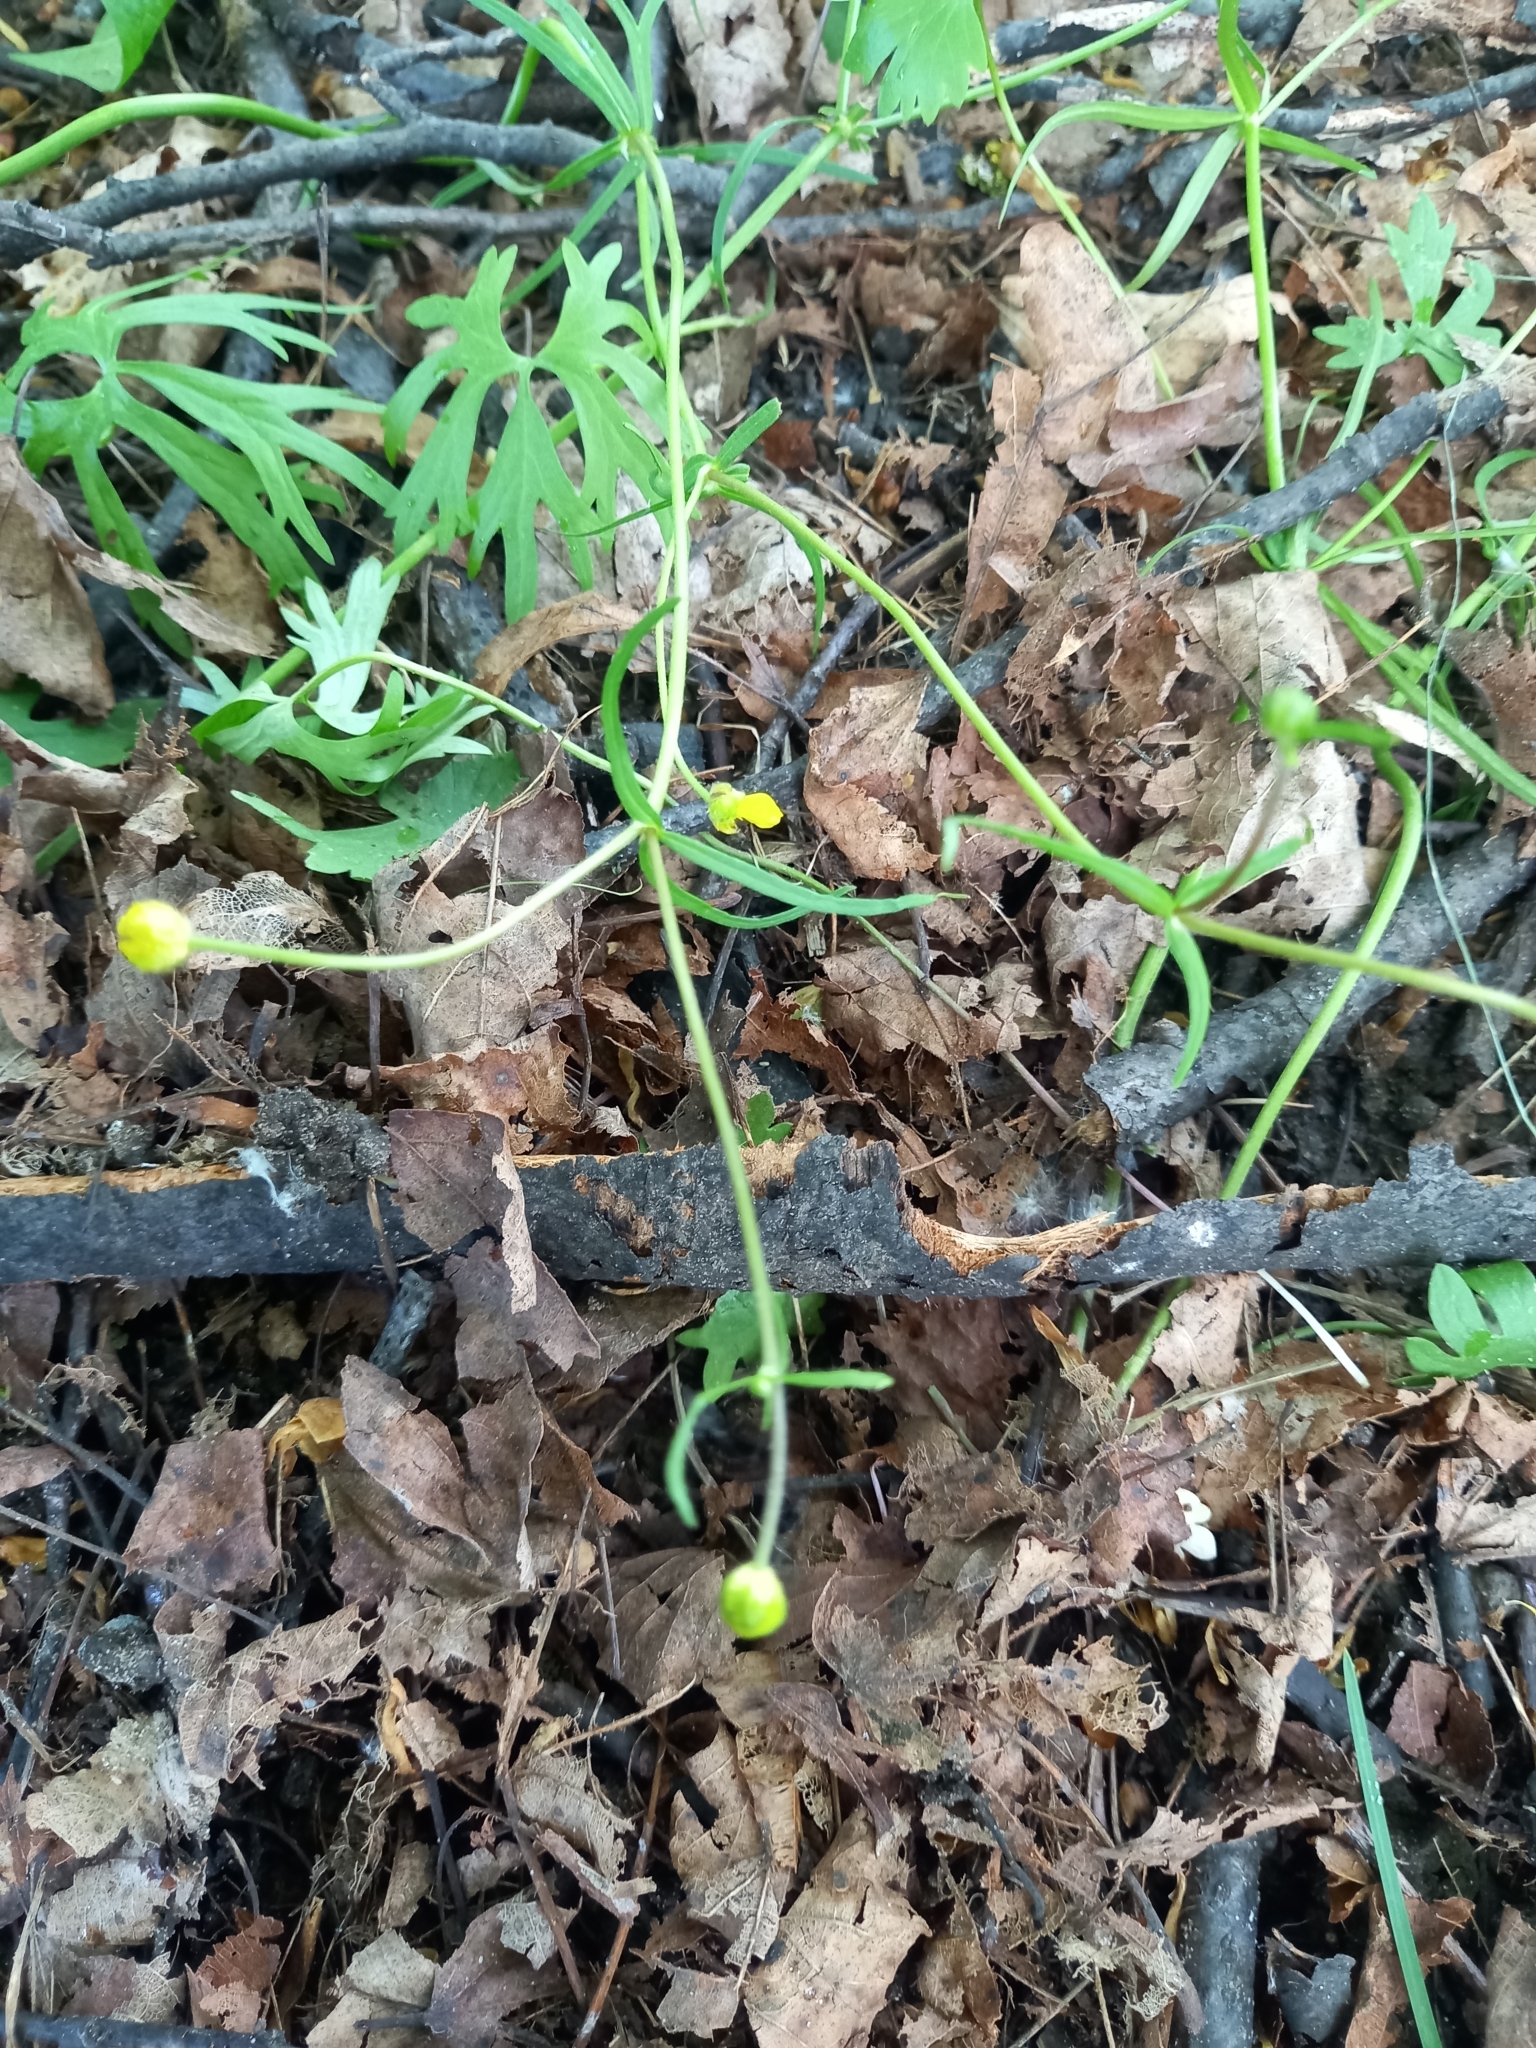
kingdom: Plantae
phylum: Tracheophyta
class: Magnoliopsida
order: Ranunculales
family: Ranunculaceae
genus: Ranunculus
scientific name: Ranunculus auricomus
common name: Goldilocks buttercup
